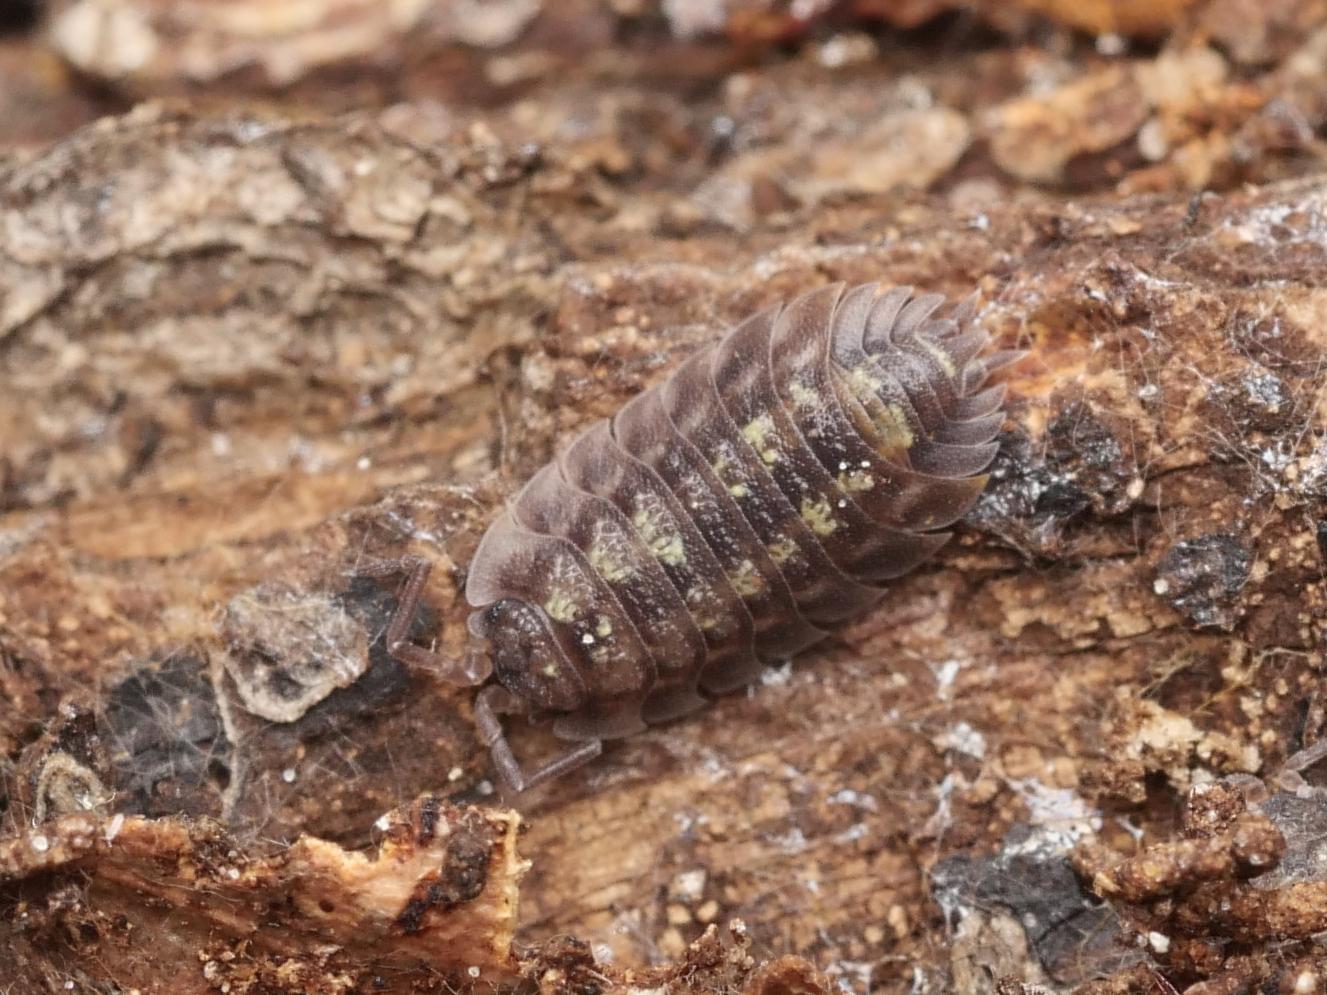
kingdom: Animalia
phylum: Arthropoda
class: Malacostraca
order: Isopoda
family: Oniscidae
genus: Oniscus
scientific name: Oniscus asellus
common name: Common shiny woodlouse
